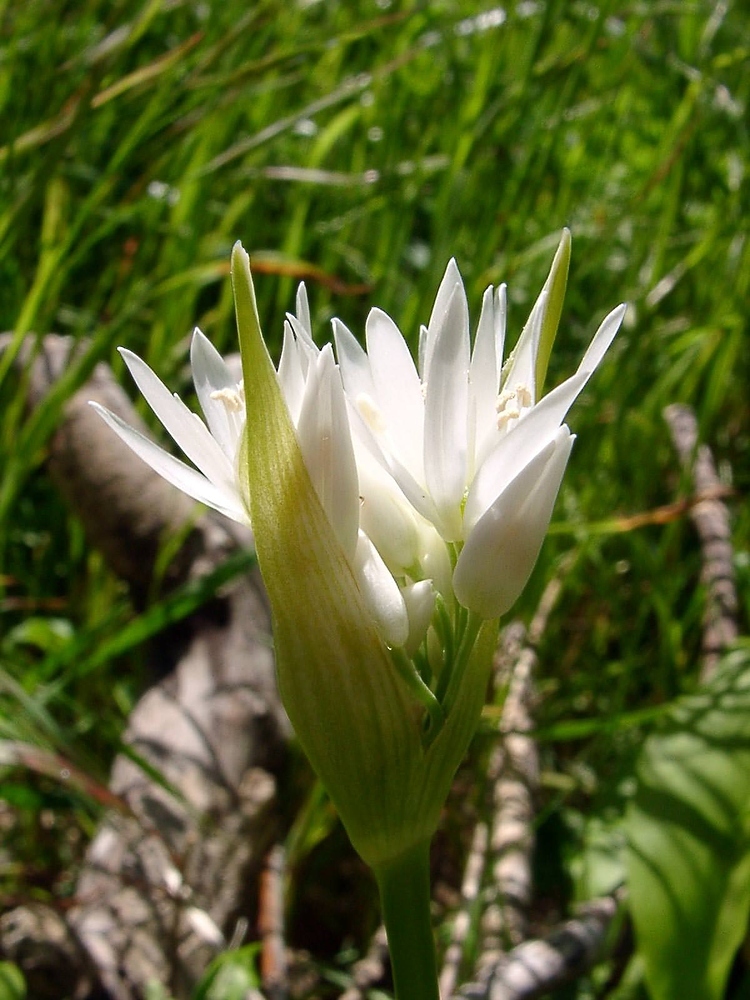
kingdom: Plantae
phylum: Tracheophyta
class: Liliopsida
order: Asparagales
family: Amaryllidaceae
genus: Allium
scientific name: Allium ursinum
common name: Ramsons
